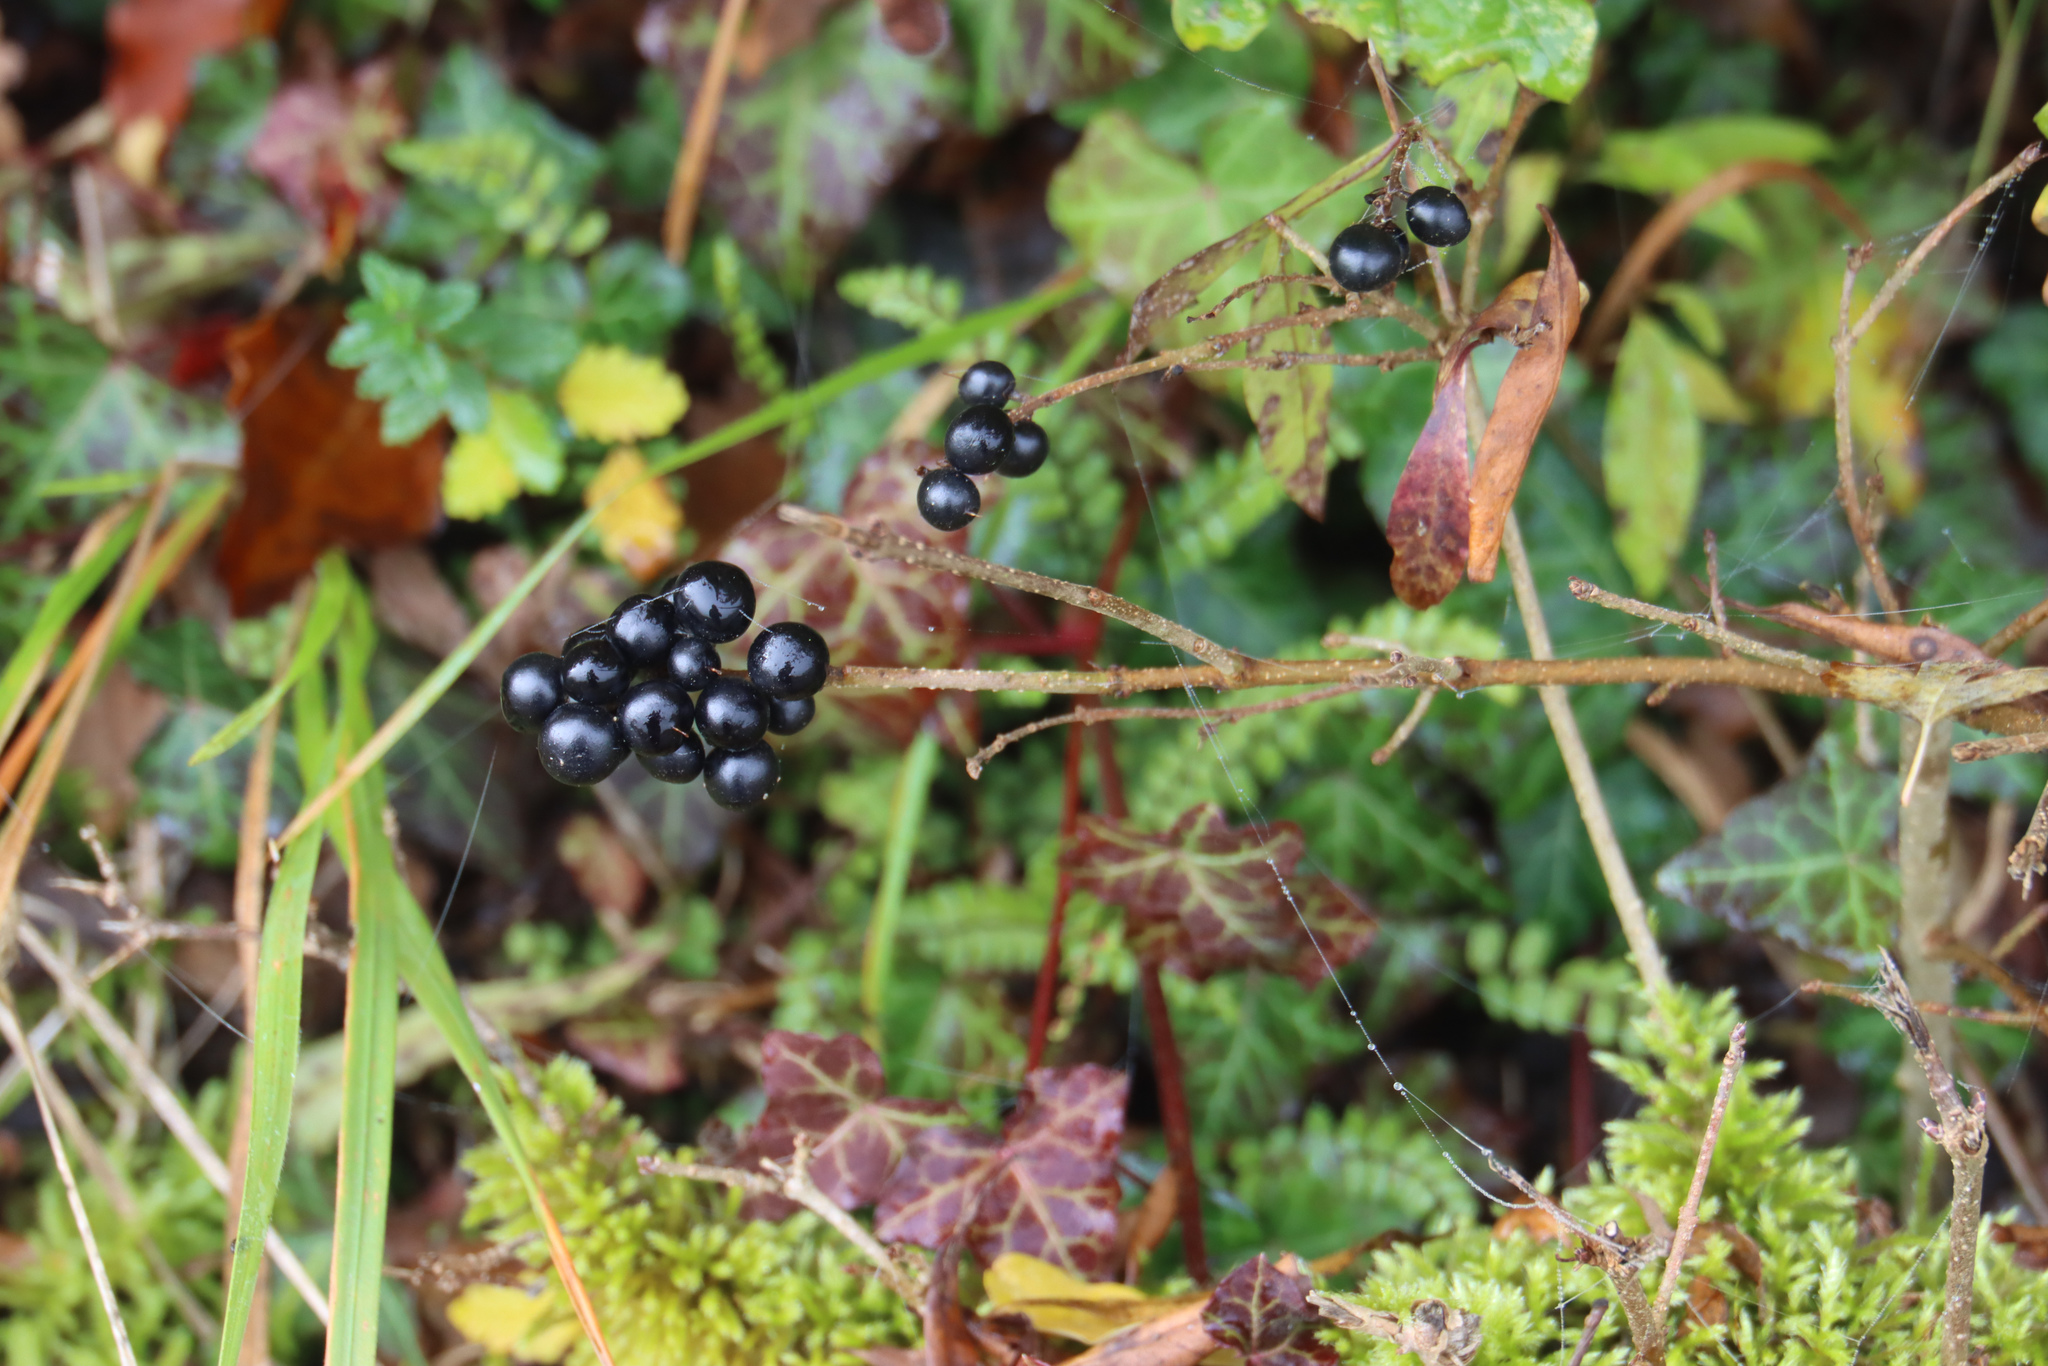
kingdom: Plantae
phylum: Tracheophyta
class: Magnoliopsida
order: Lamiales
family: Oleaceae
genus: Ligustrum
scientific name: Ligustrum vulgare
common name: Wild privet
